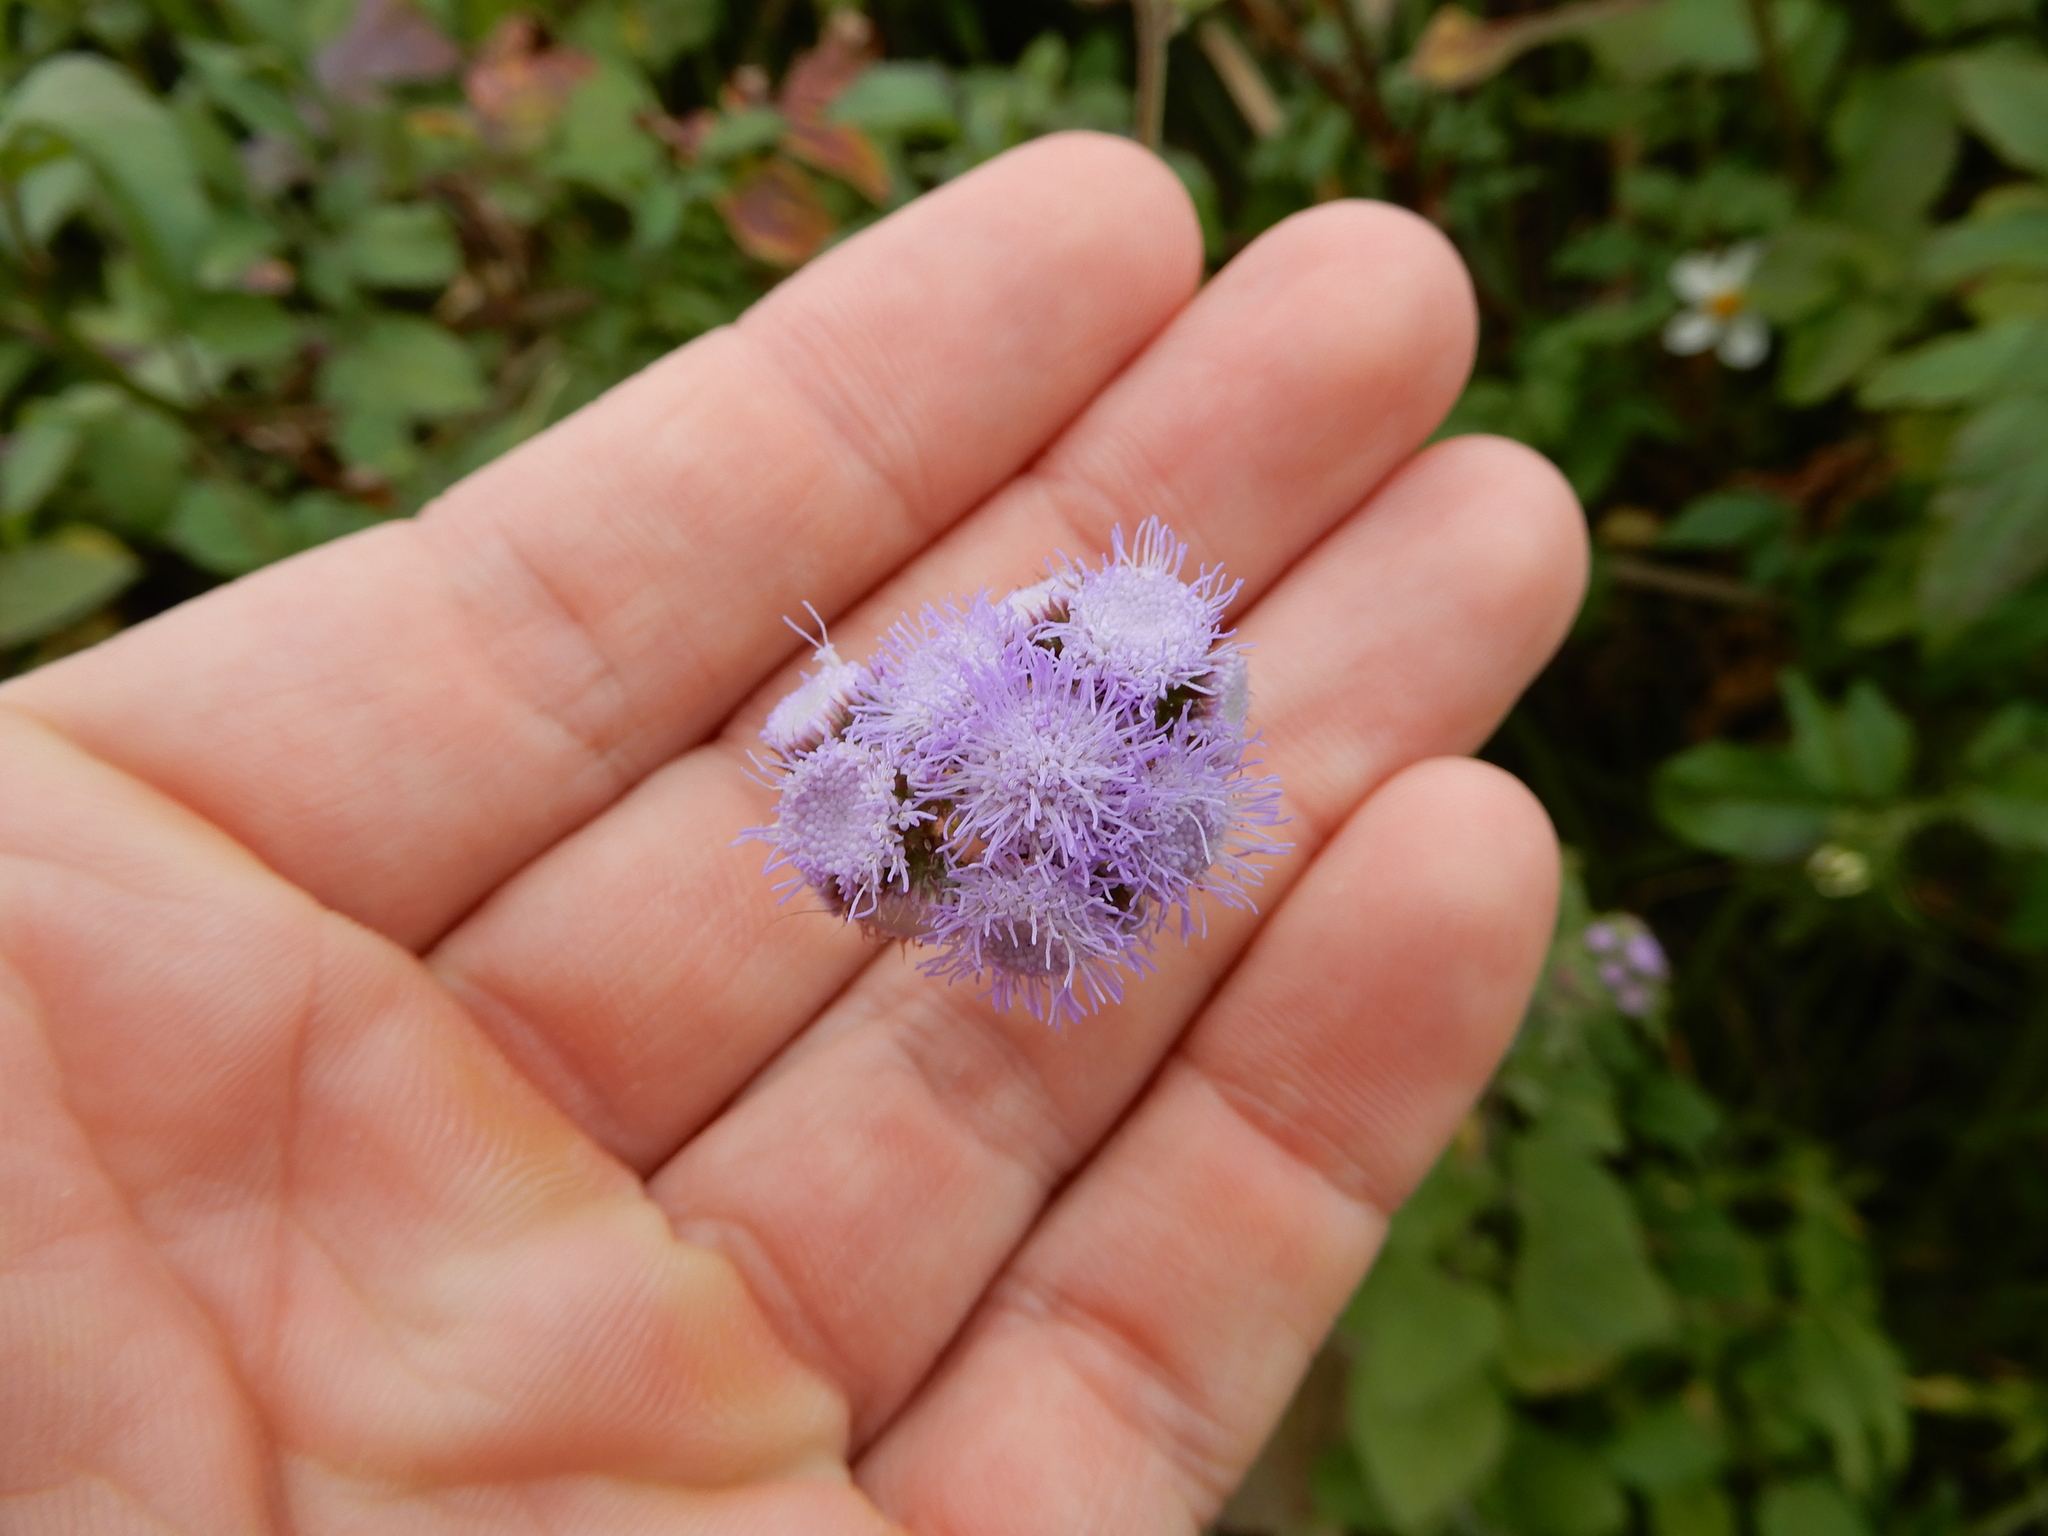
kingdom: Plantae
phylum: Tracheophyta
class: Magnoliopsida
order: Asterales
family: Asteraceae
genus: Ageratum
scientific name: Ageratum houstonianum
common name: Bluemink
